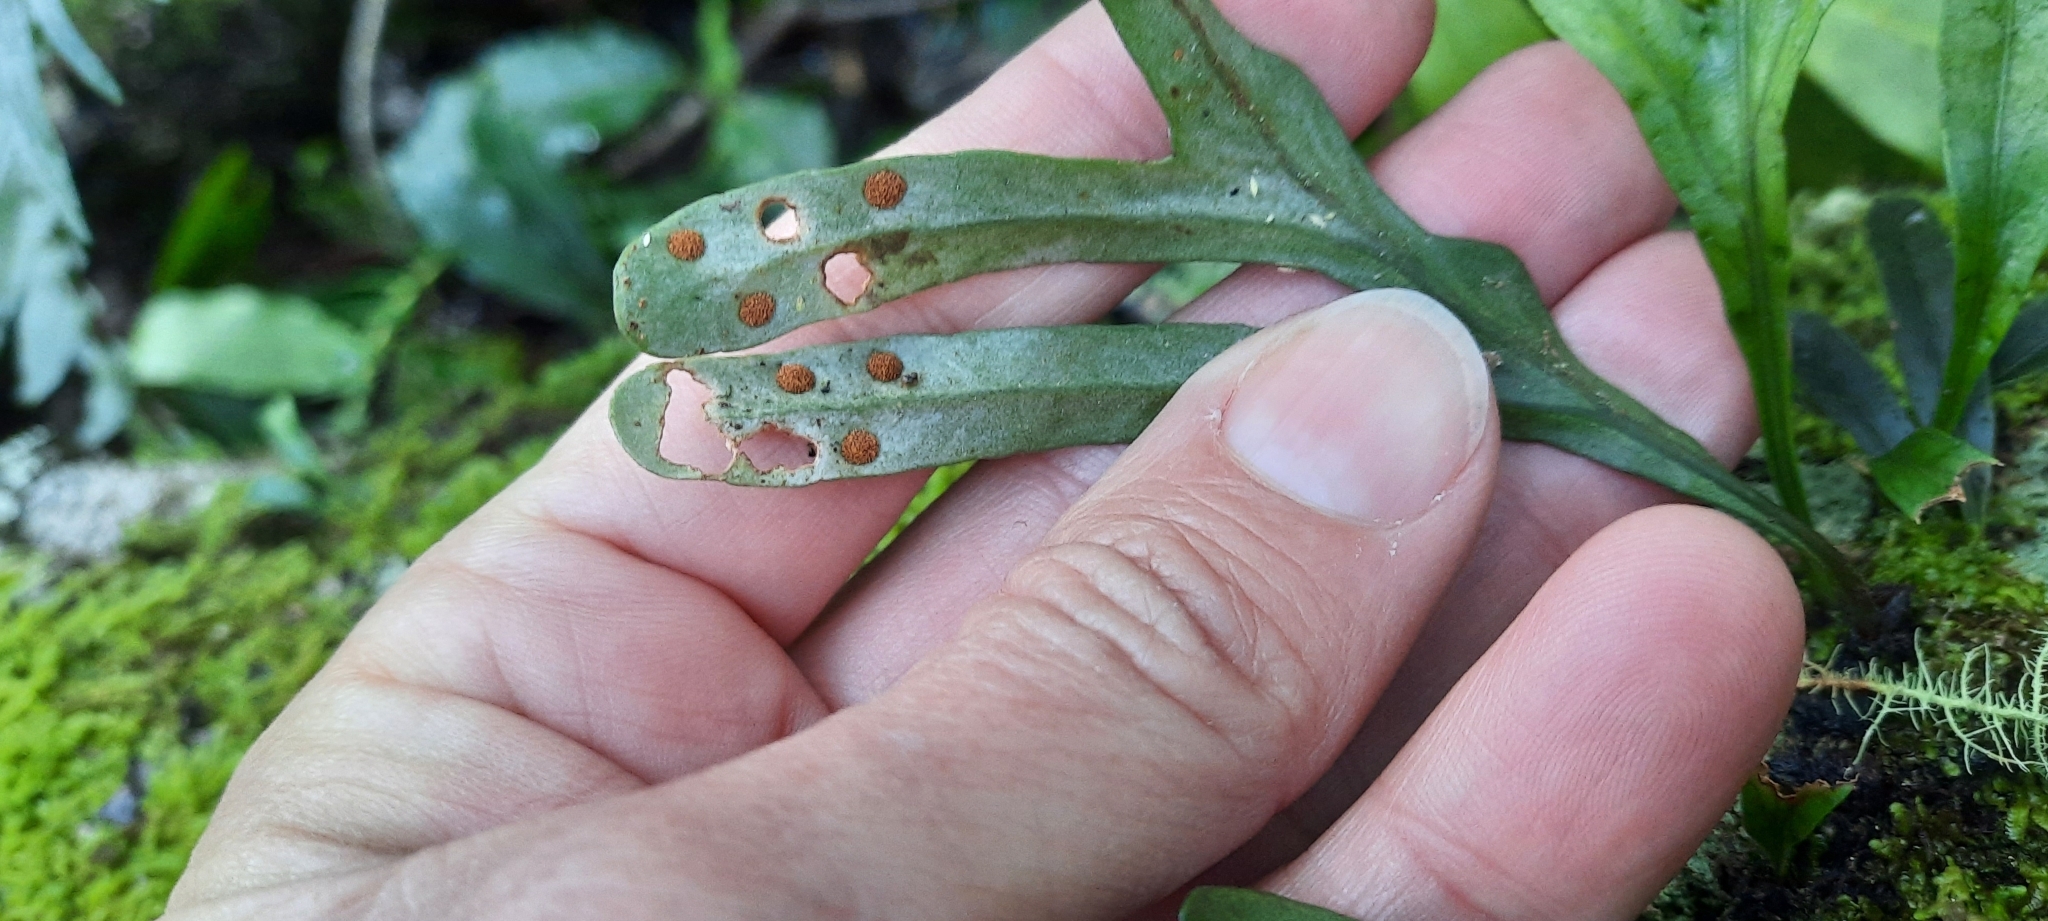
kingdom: Plantae
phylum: Tracheophyta
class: Polypodiopsida
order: Polypodiales
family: Polypodiaceae
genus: Polypodium
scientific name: Polypodium ensiforme
